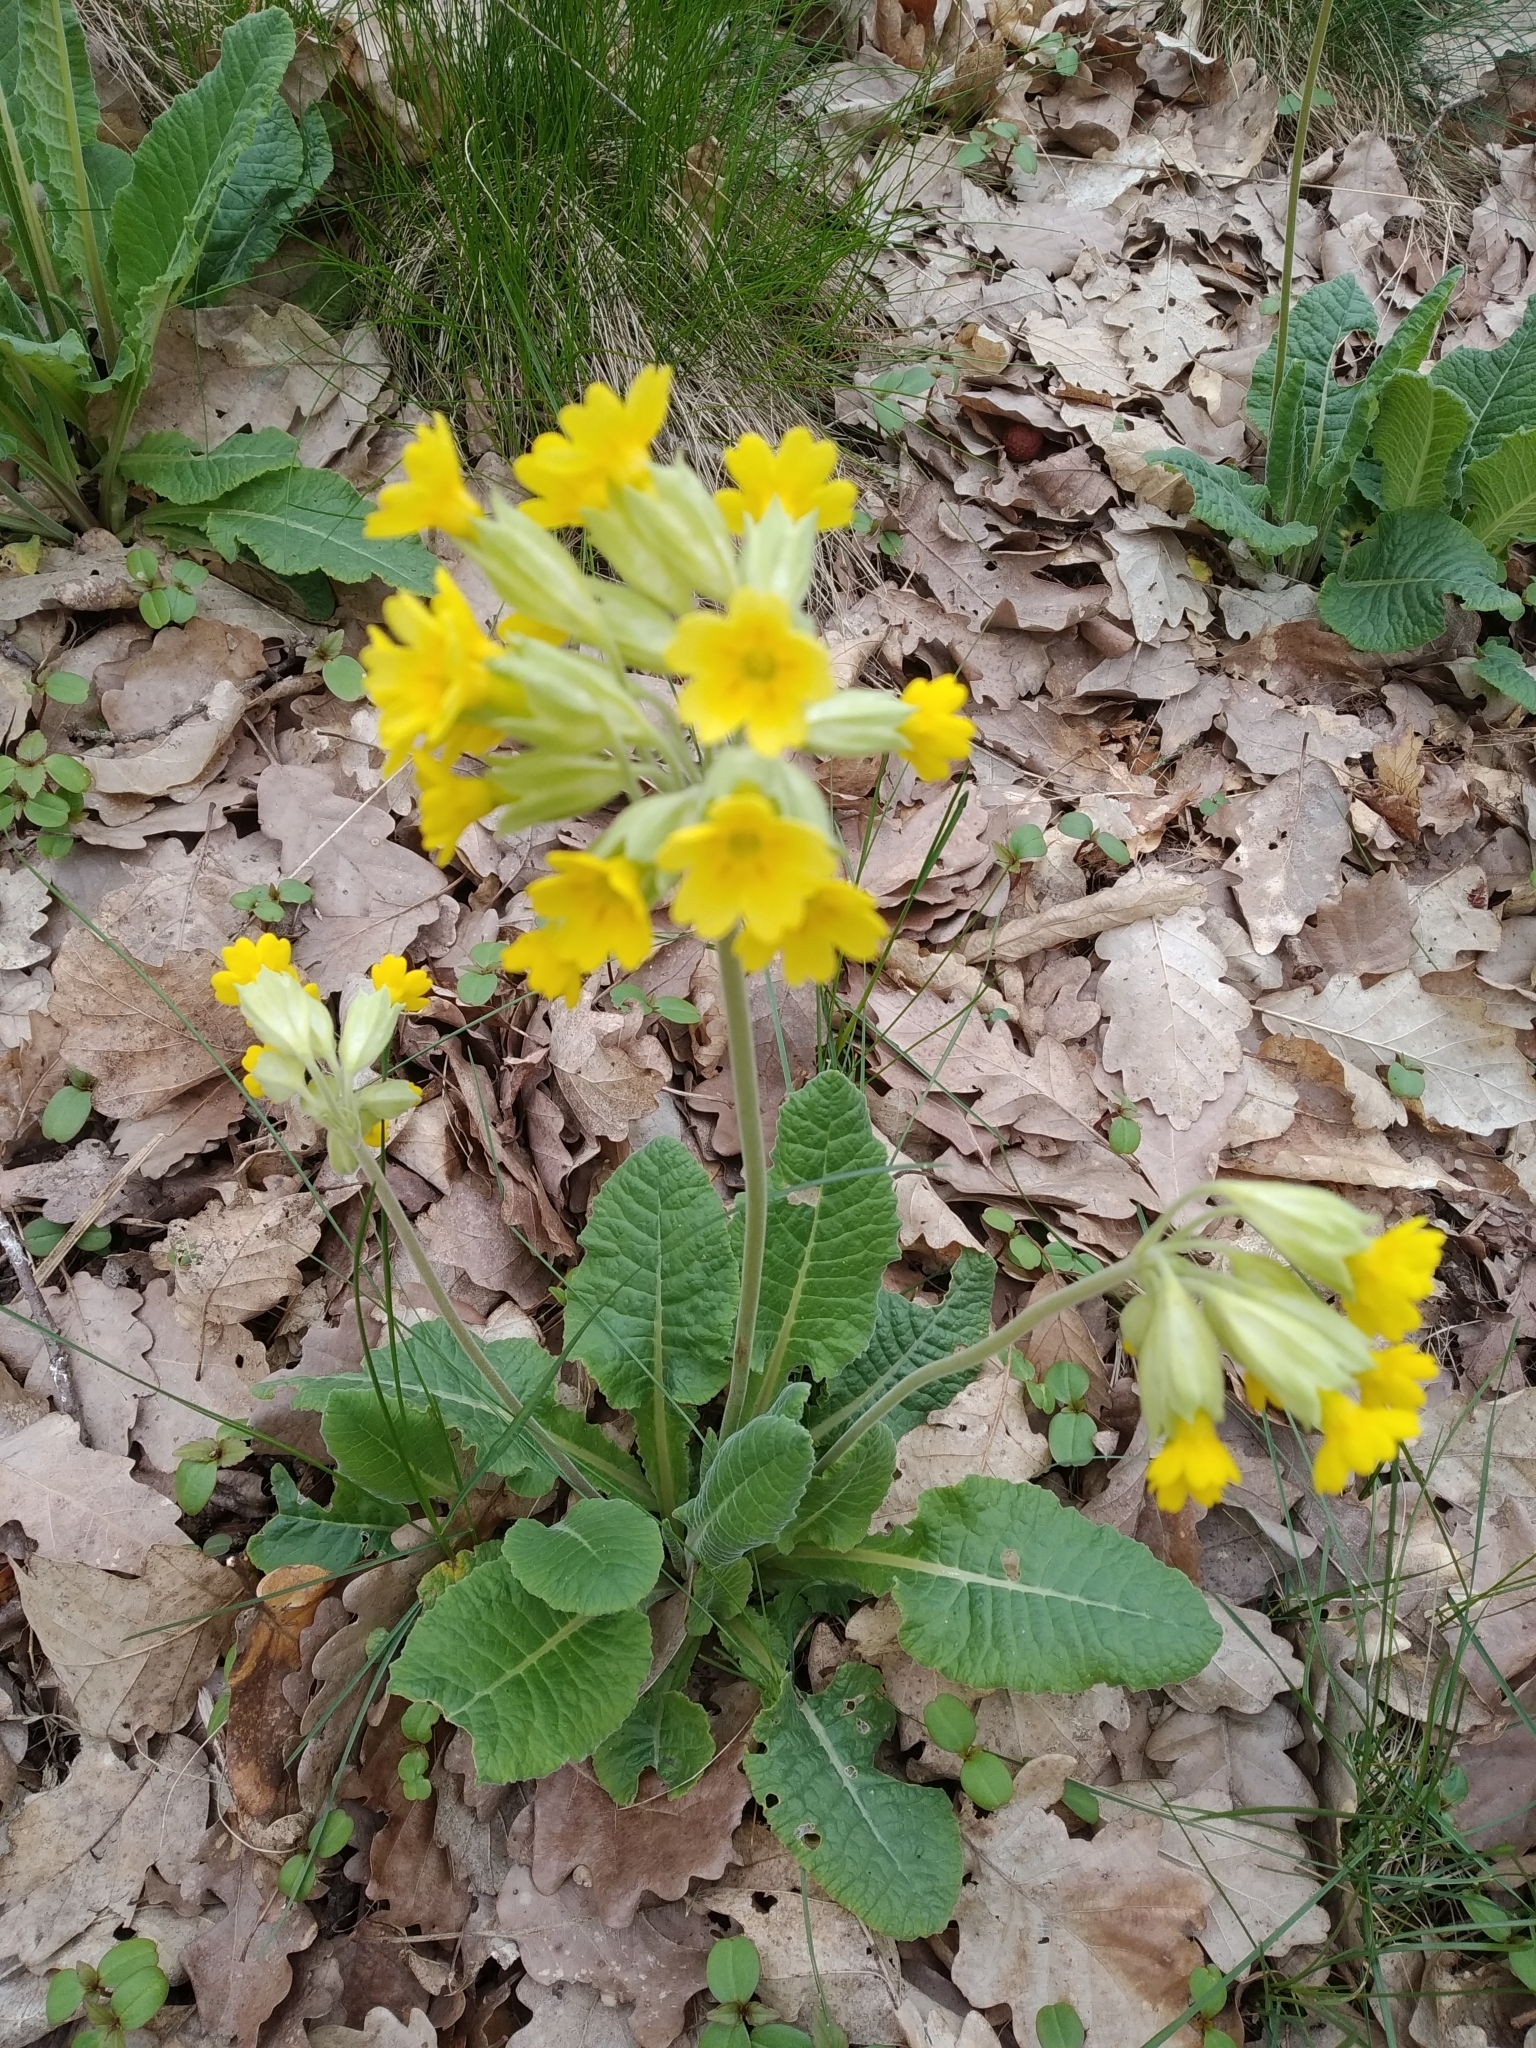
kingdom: Plantae
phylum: Tracheophyta
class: Magnoliopsida
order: Ericales
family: Primulaceae
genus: Primula
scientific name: Primula veris
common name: Cowslip
